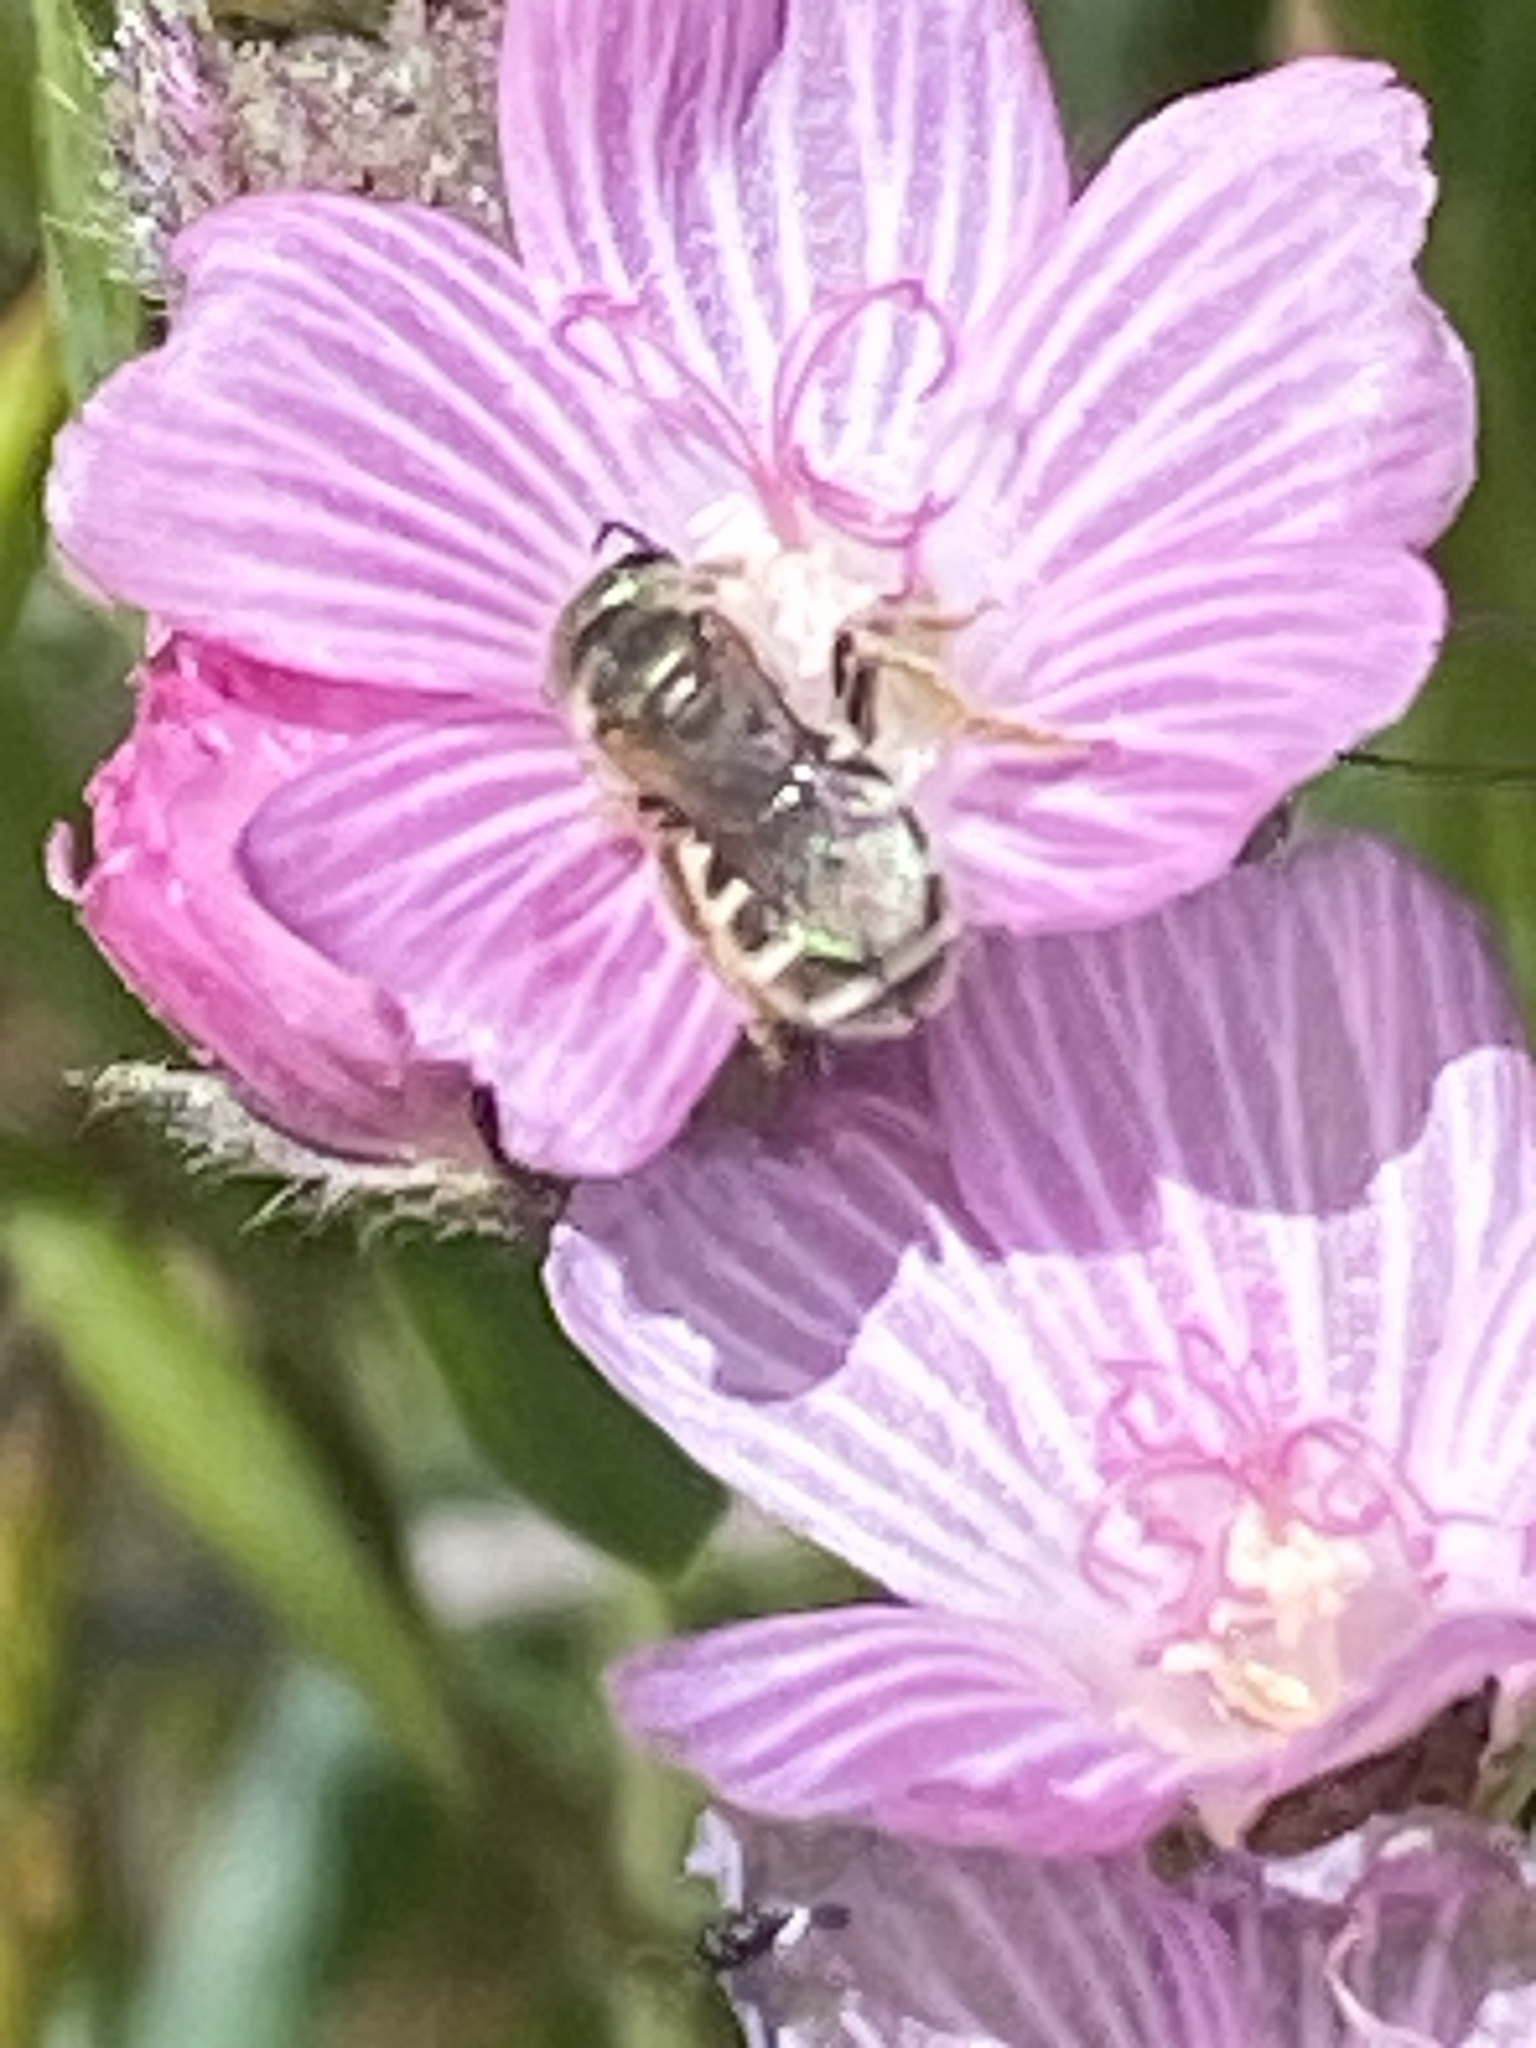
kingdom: Animalia
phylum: Arthropoda
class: Insecta
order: Hymenoptera
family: Halictidae
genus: Halictus
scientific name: Halictus tripartitus
